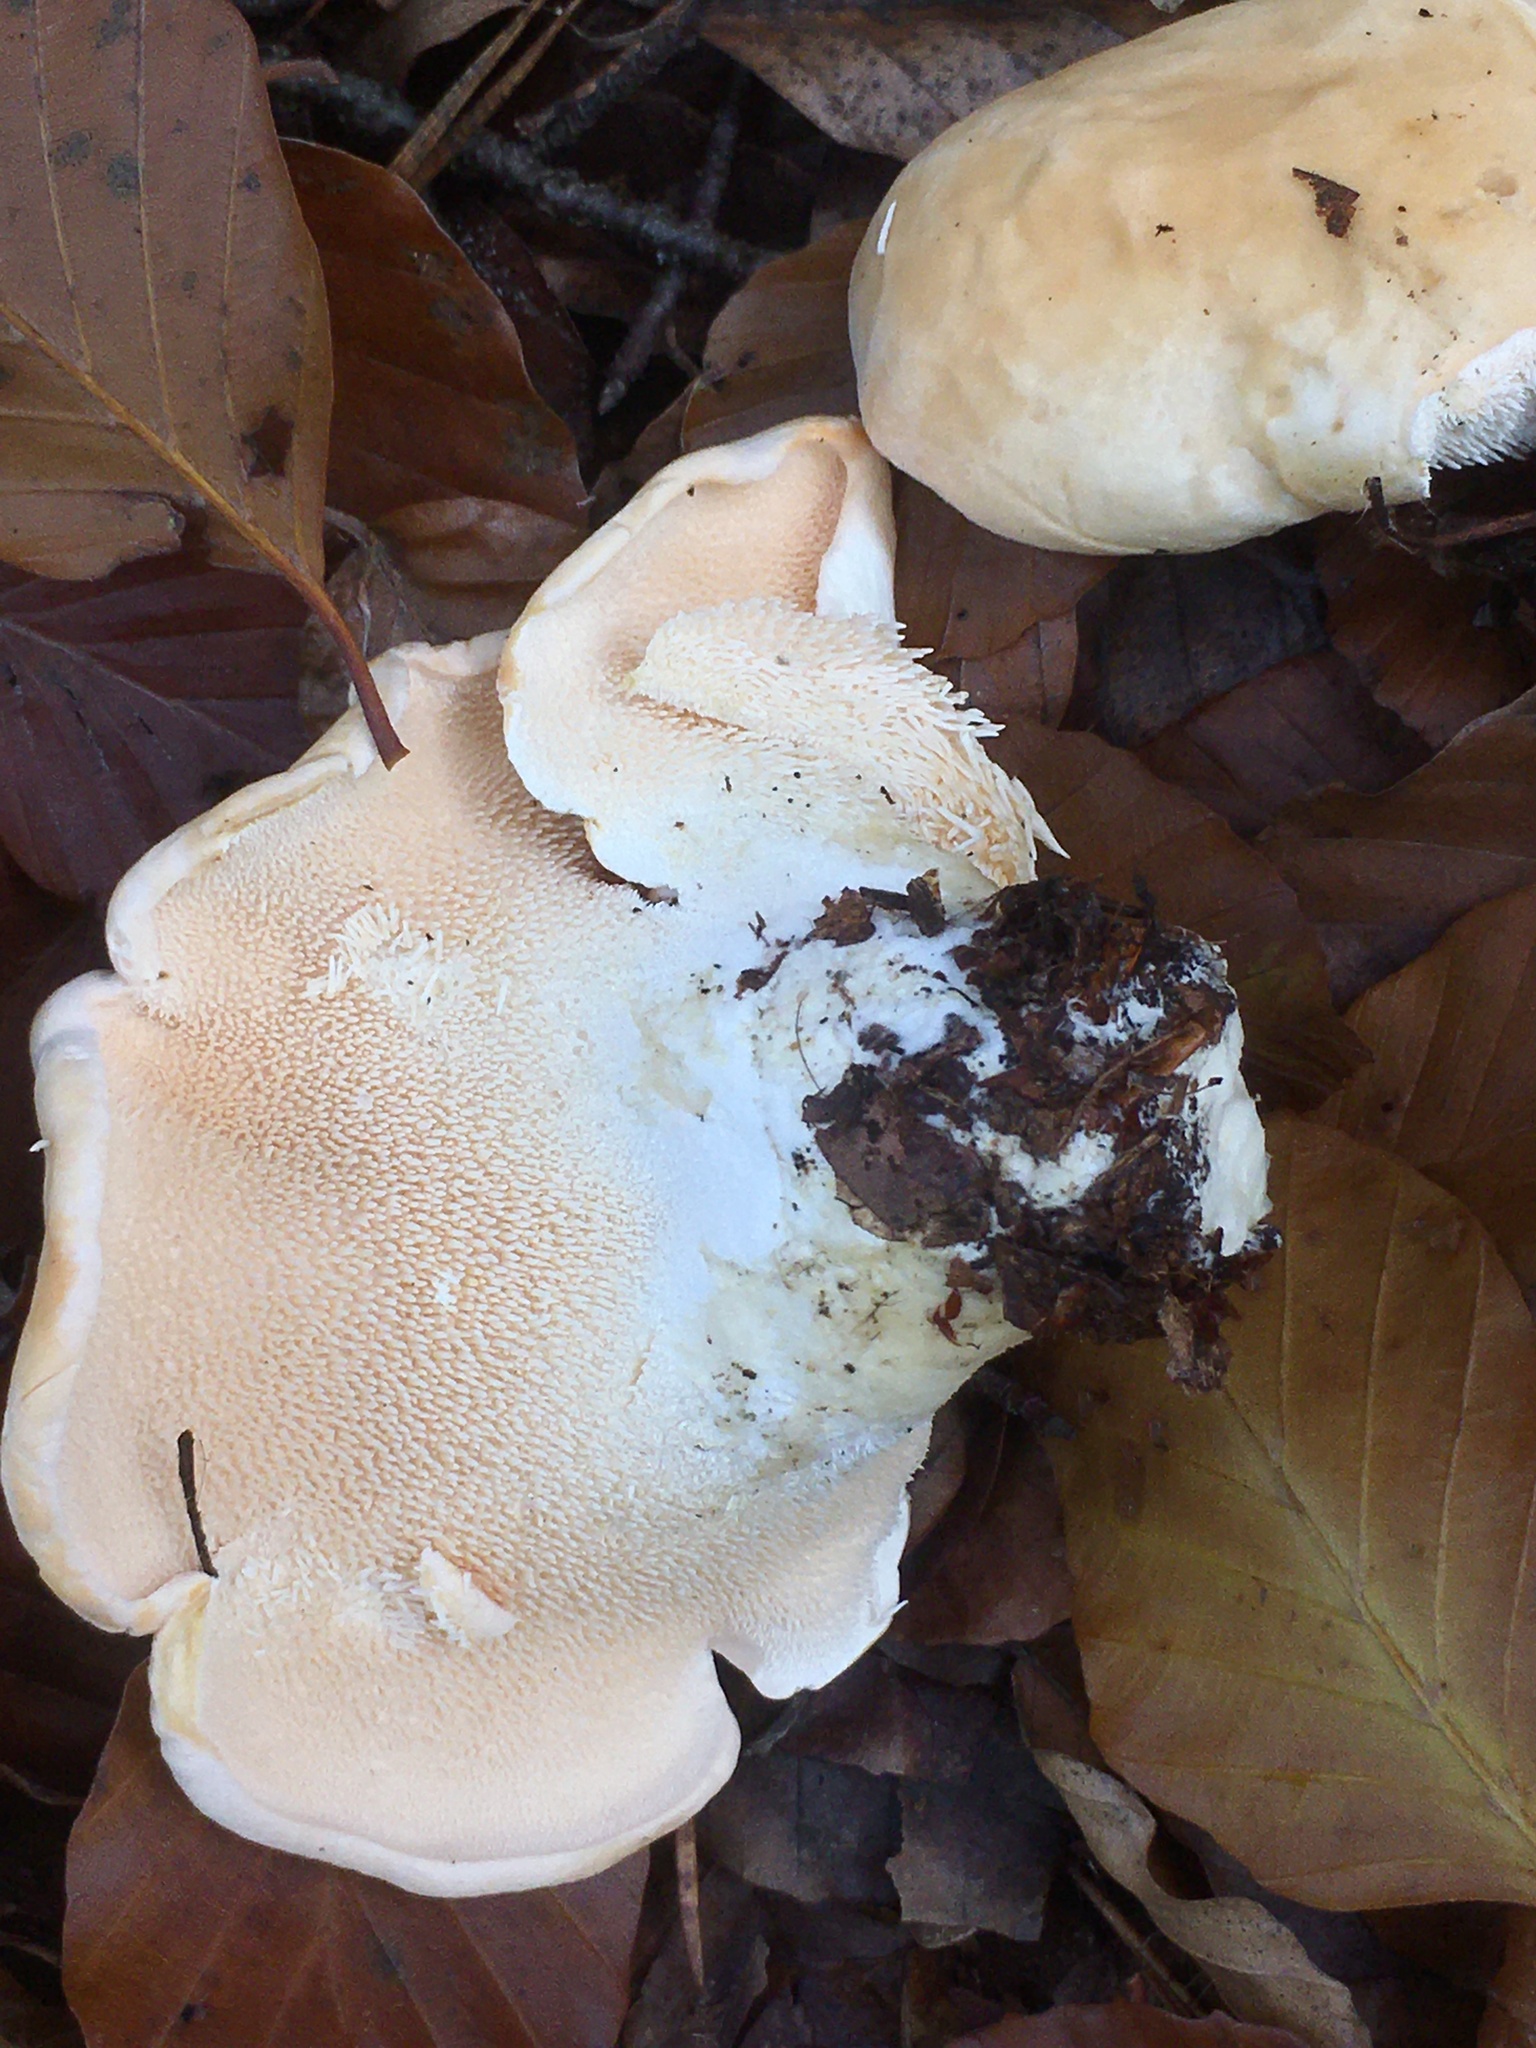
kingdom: Fungi
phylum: Basidiomycota
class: Agaricomycetes
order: Cantharellales
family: Hydnaceae
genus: Hydnum
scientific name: Hydnum repandum
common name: Wood hedgehog
